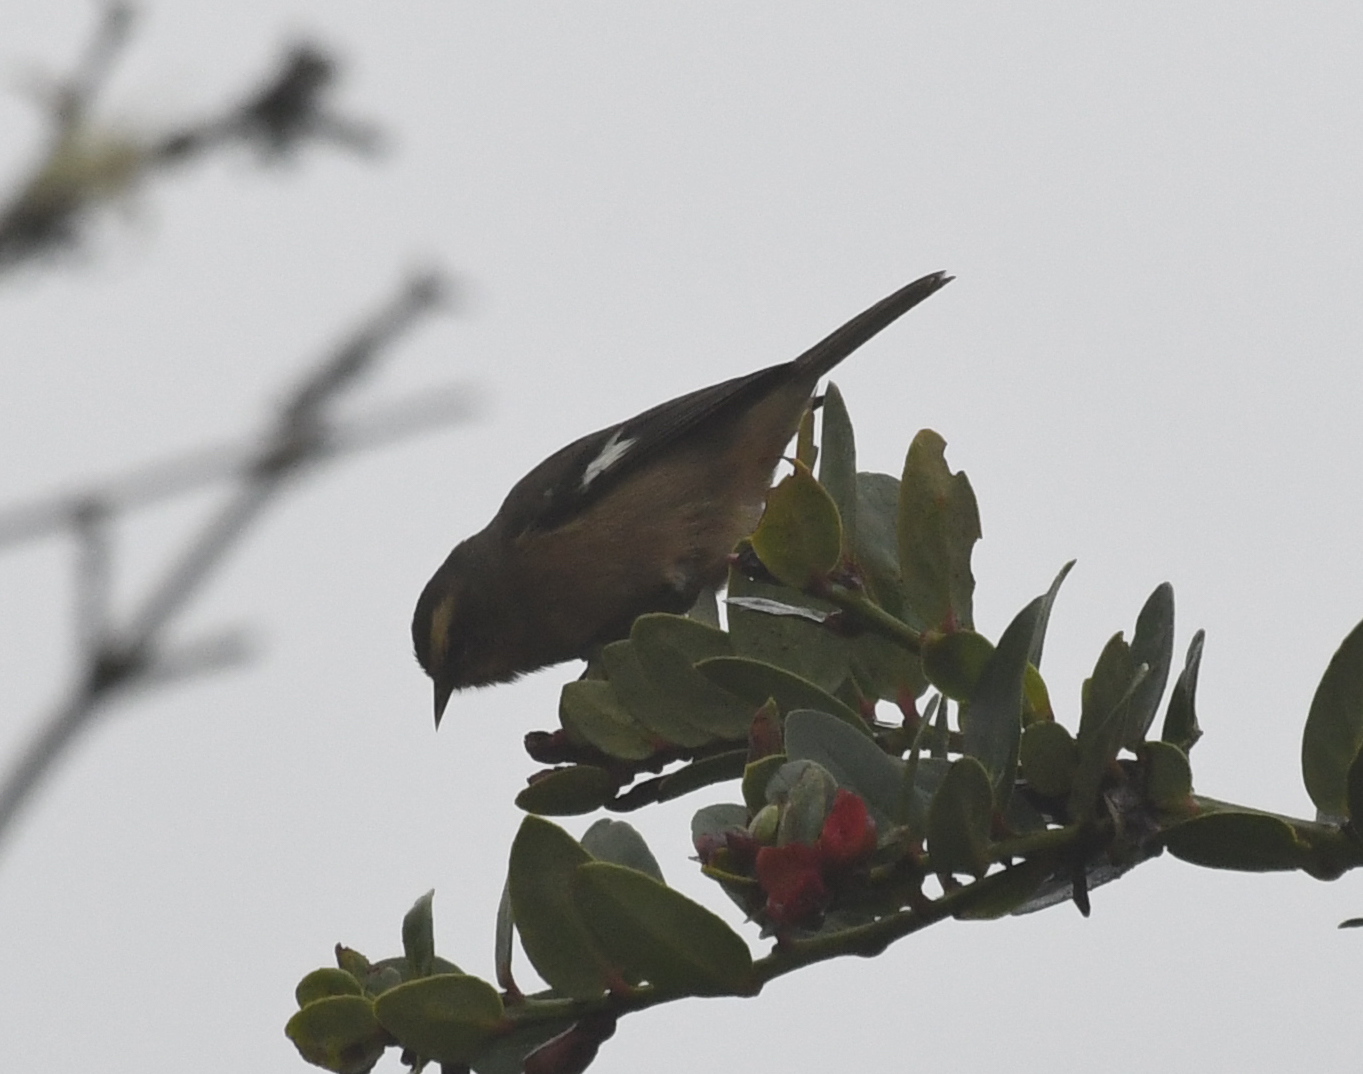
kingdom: Animalia
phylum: Chordata
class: Aves
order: Passeriformes
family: Thraupidae
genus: Conirostrum
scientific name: Conirostrum cinereum
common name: Cinereous conebill
